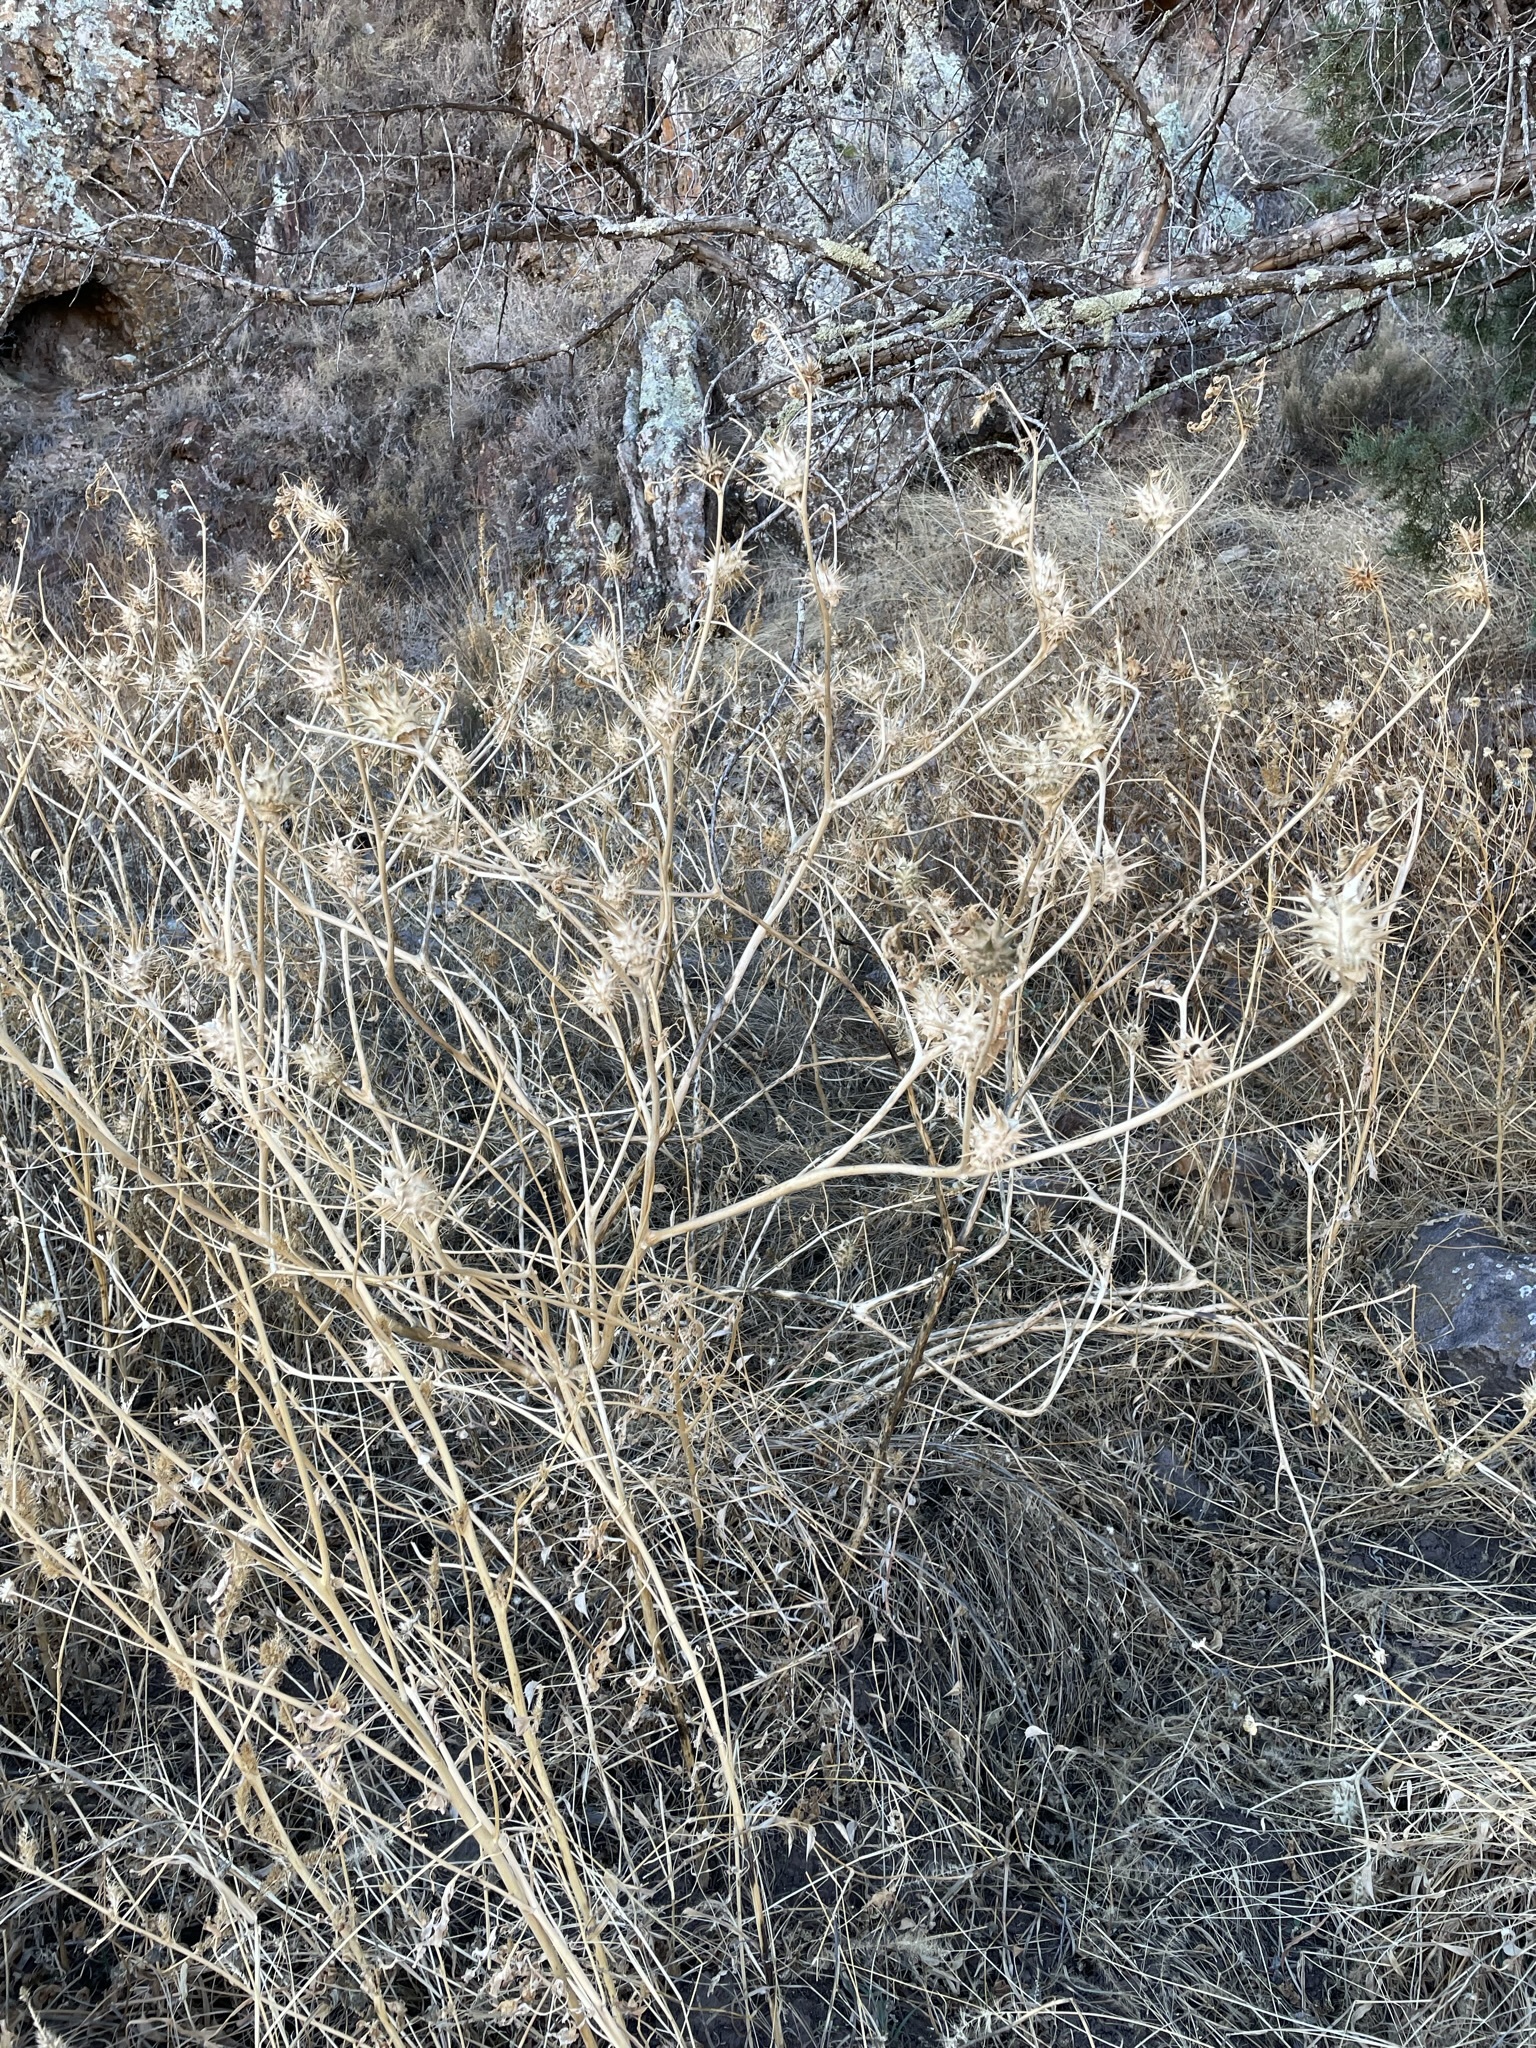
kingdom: Plantae
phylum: Tracheophyta
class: Magnoliopsida
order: Solanales
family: Solanaceae
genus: Datura
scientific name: Datura quercifolia
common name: Oak-leaf datura
